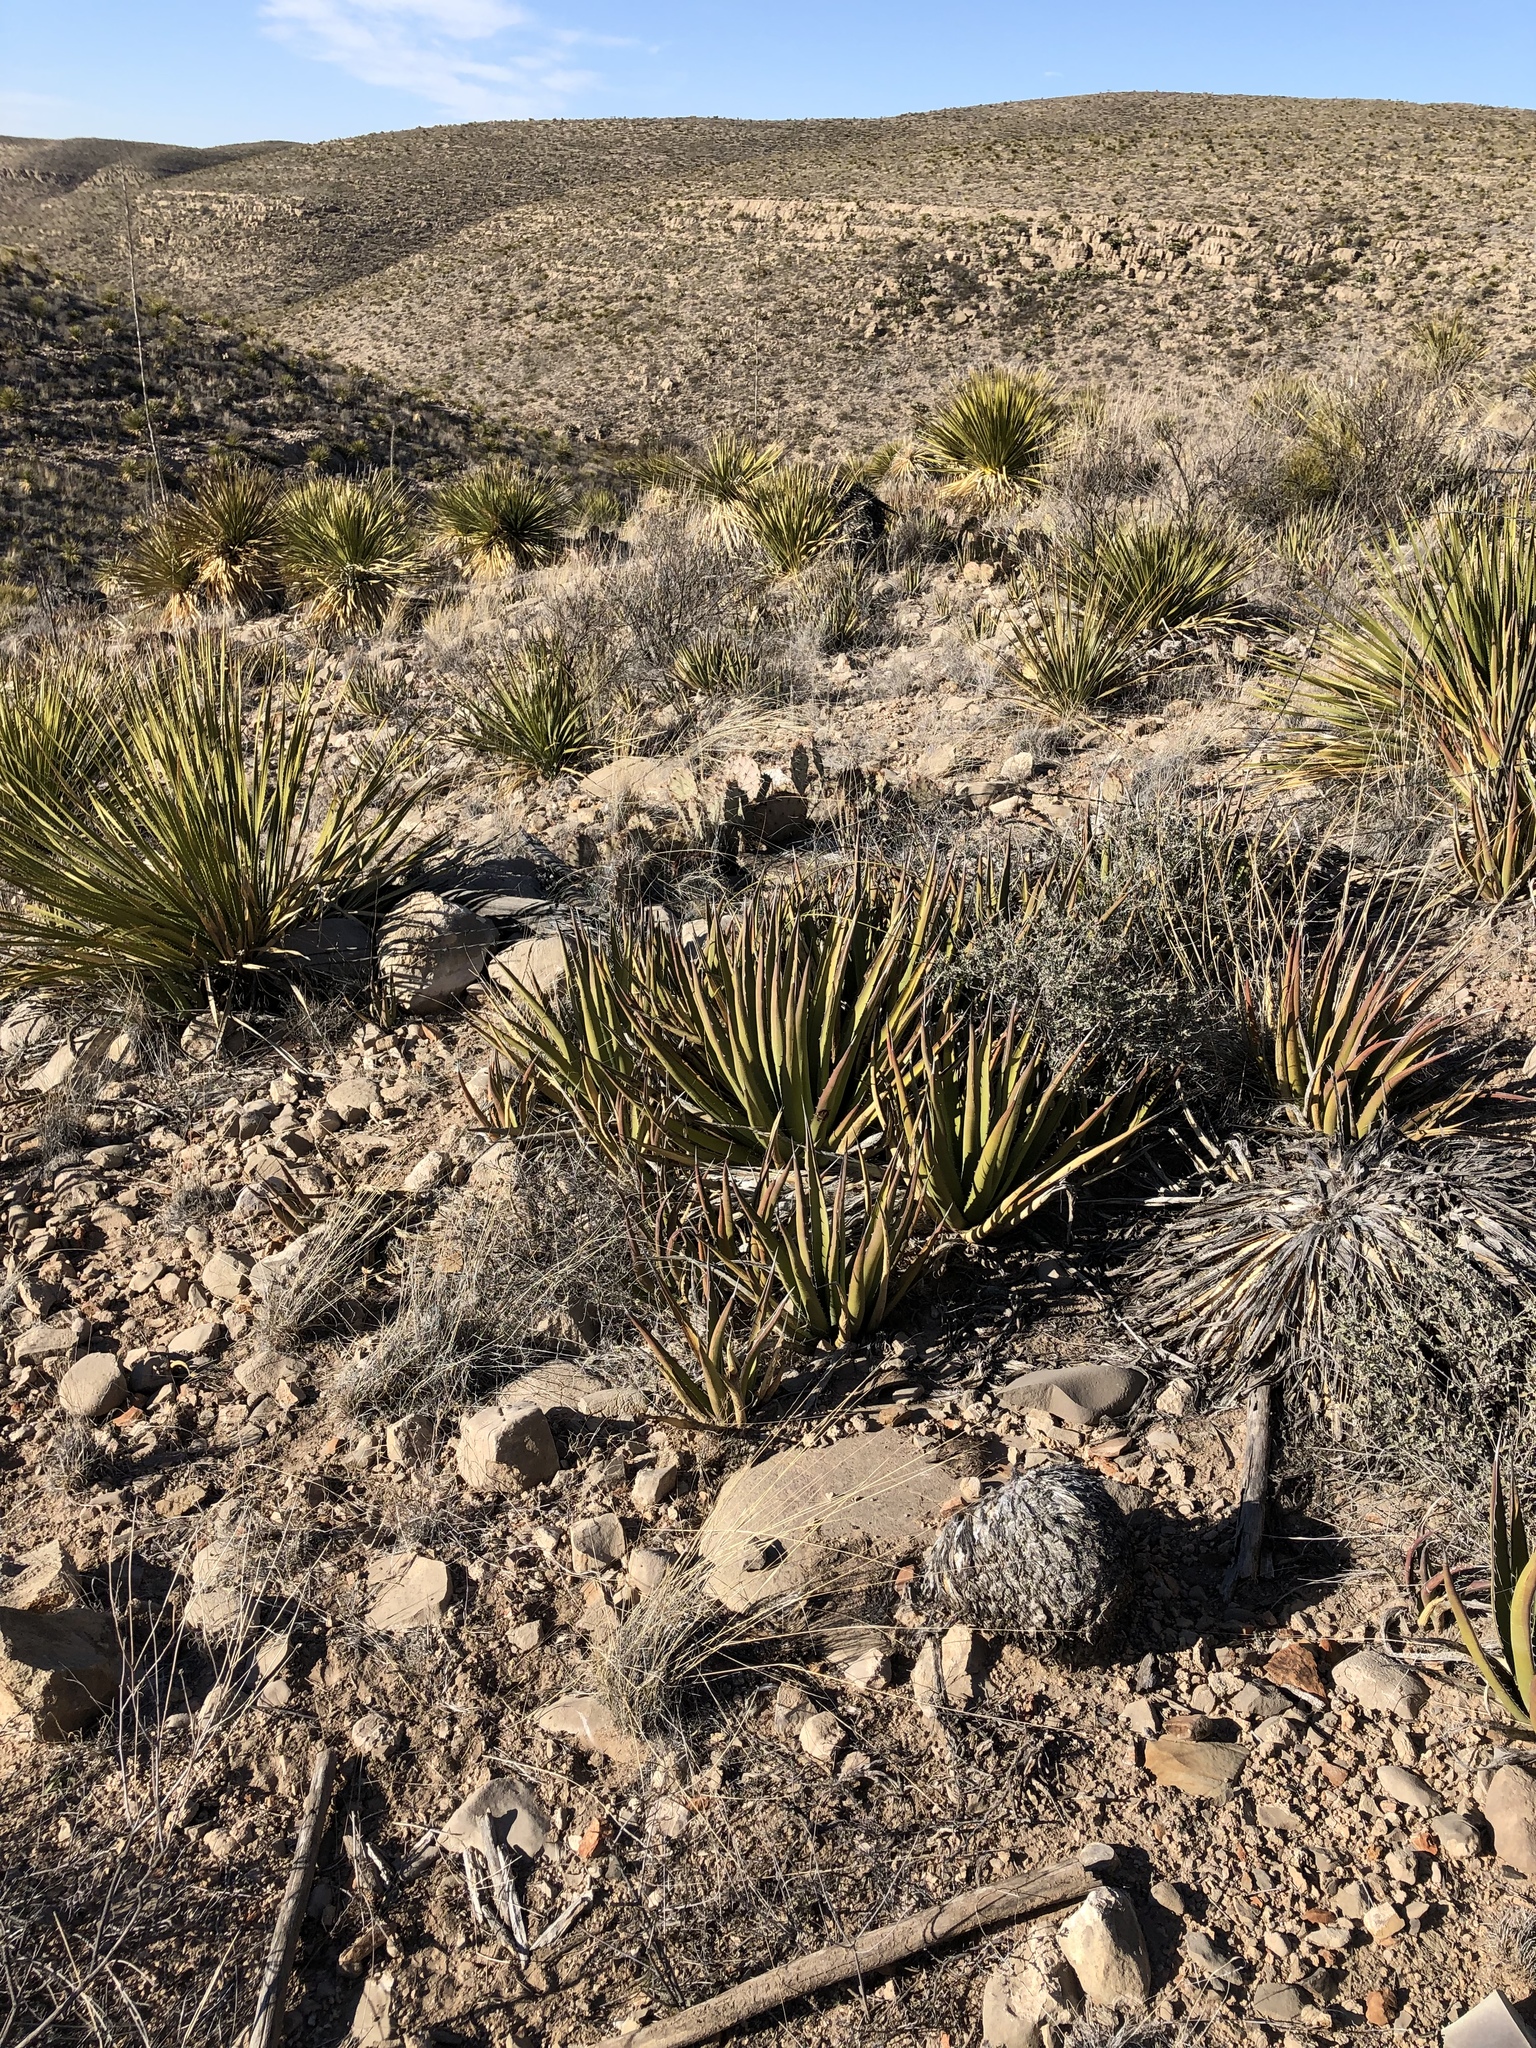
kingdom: Plantae
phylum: Tracheophyta
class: Liliopsida
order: Asparagales
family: Asparagaceae
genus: Agave
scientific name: Agave lechuguilla
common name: Lecheguilla agave
